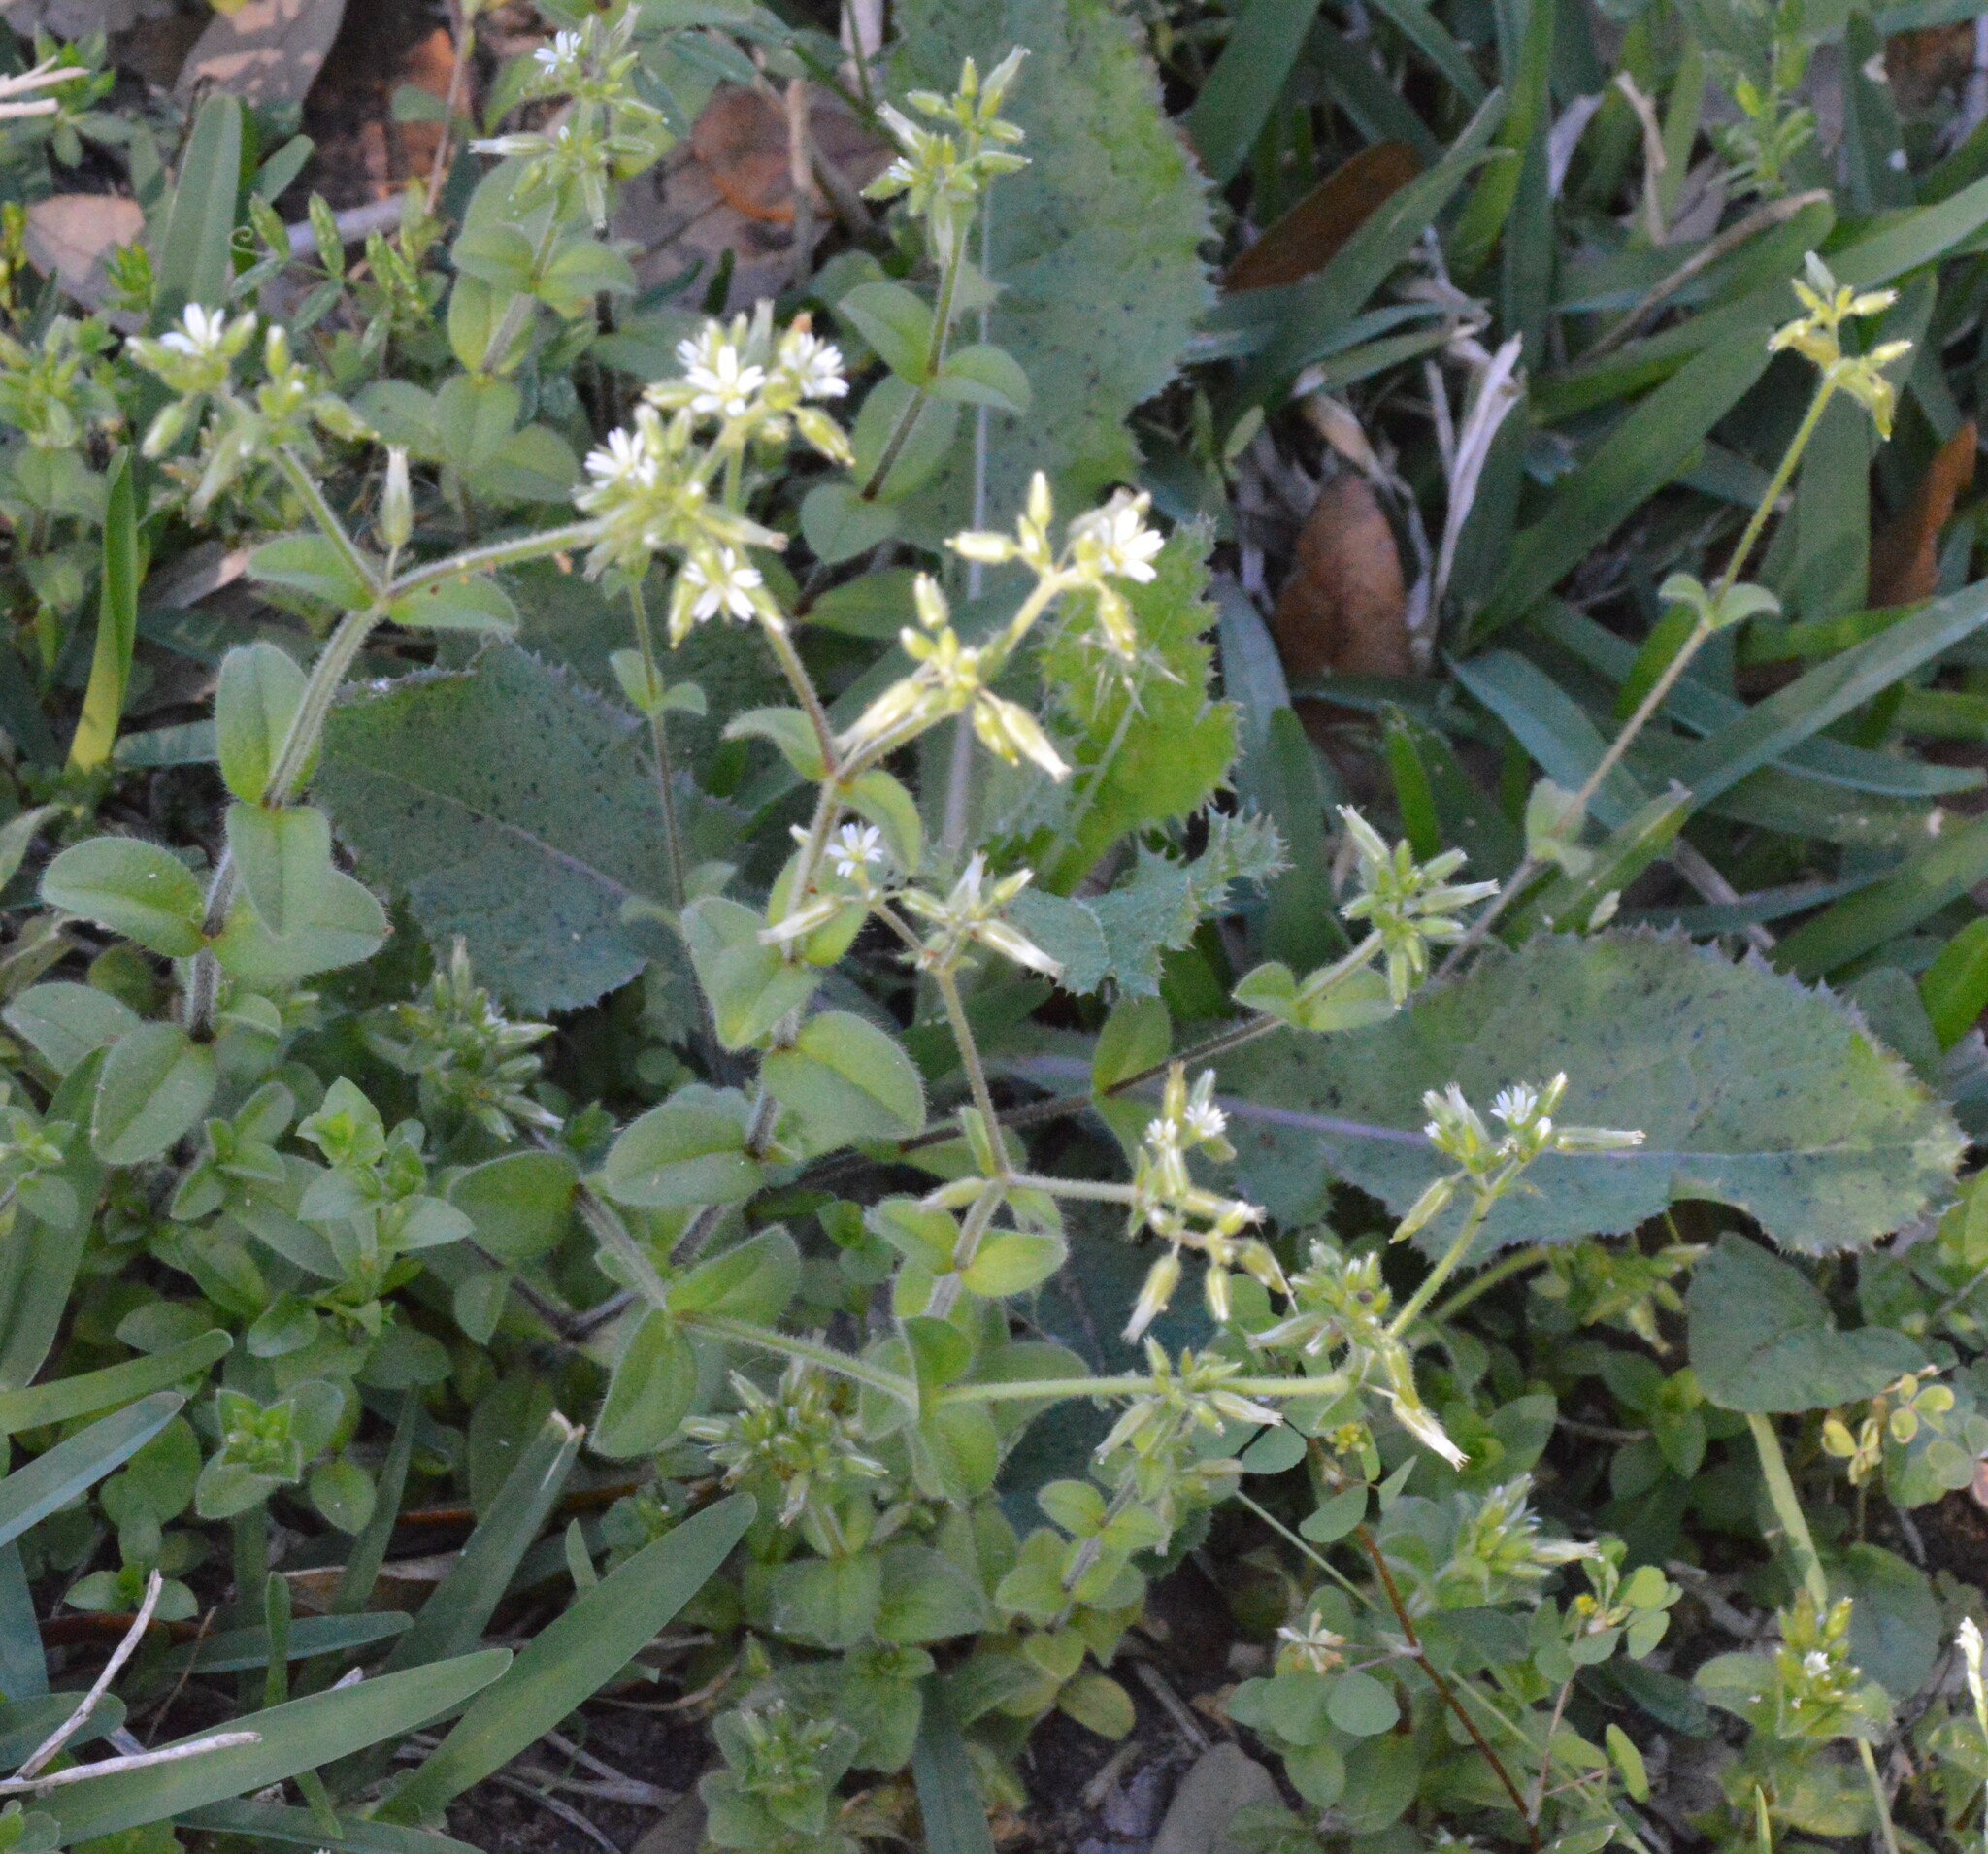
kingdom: Plantae
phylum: Tracheophyta
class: Magnoliopsida
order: Caryophyllales
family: Caryophyllaceae
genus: Cerastium
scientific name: Cerastium glomeratum
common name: Sticky chickweed
